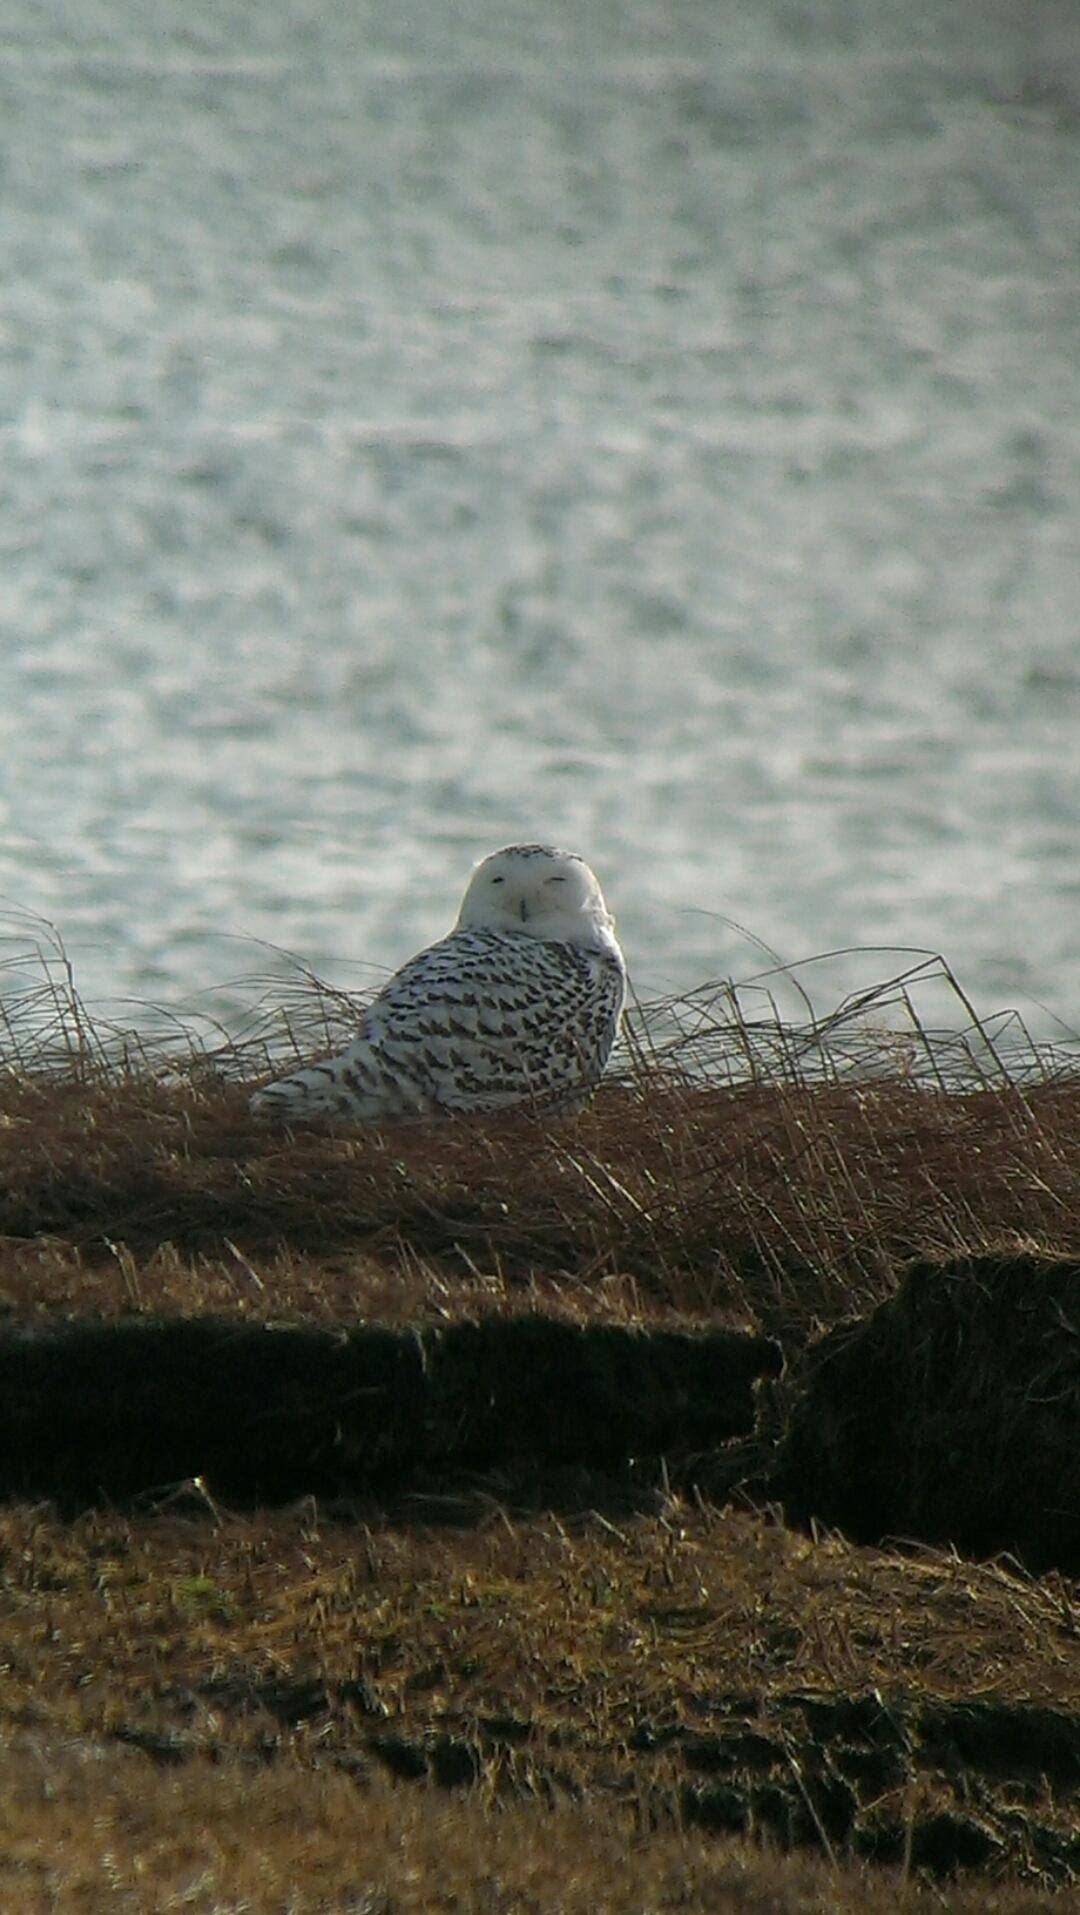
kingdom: Animalia
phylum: Chordata
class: Aves
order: Strigiformes
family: Strigidae
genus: Bubo
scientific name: Bubo scandiacus
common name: Snowy owl
